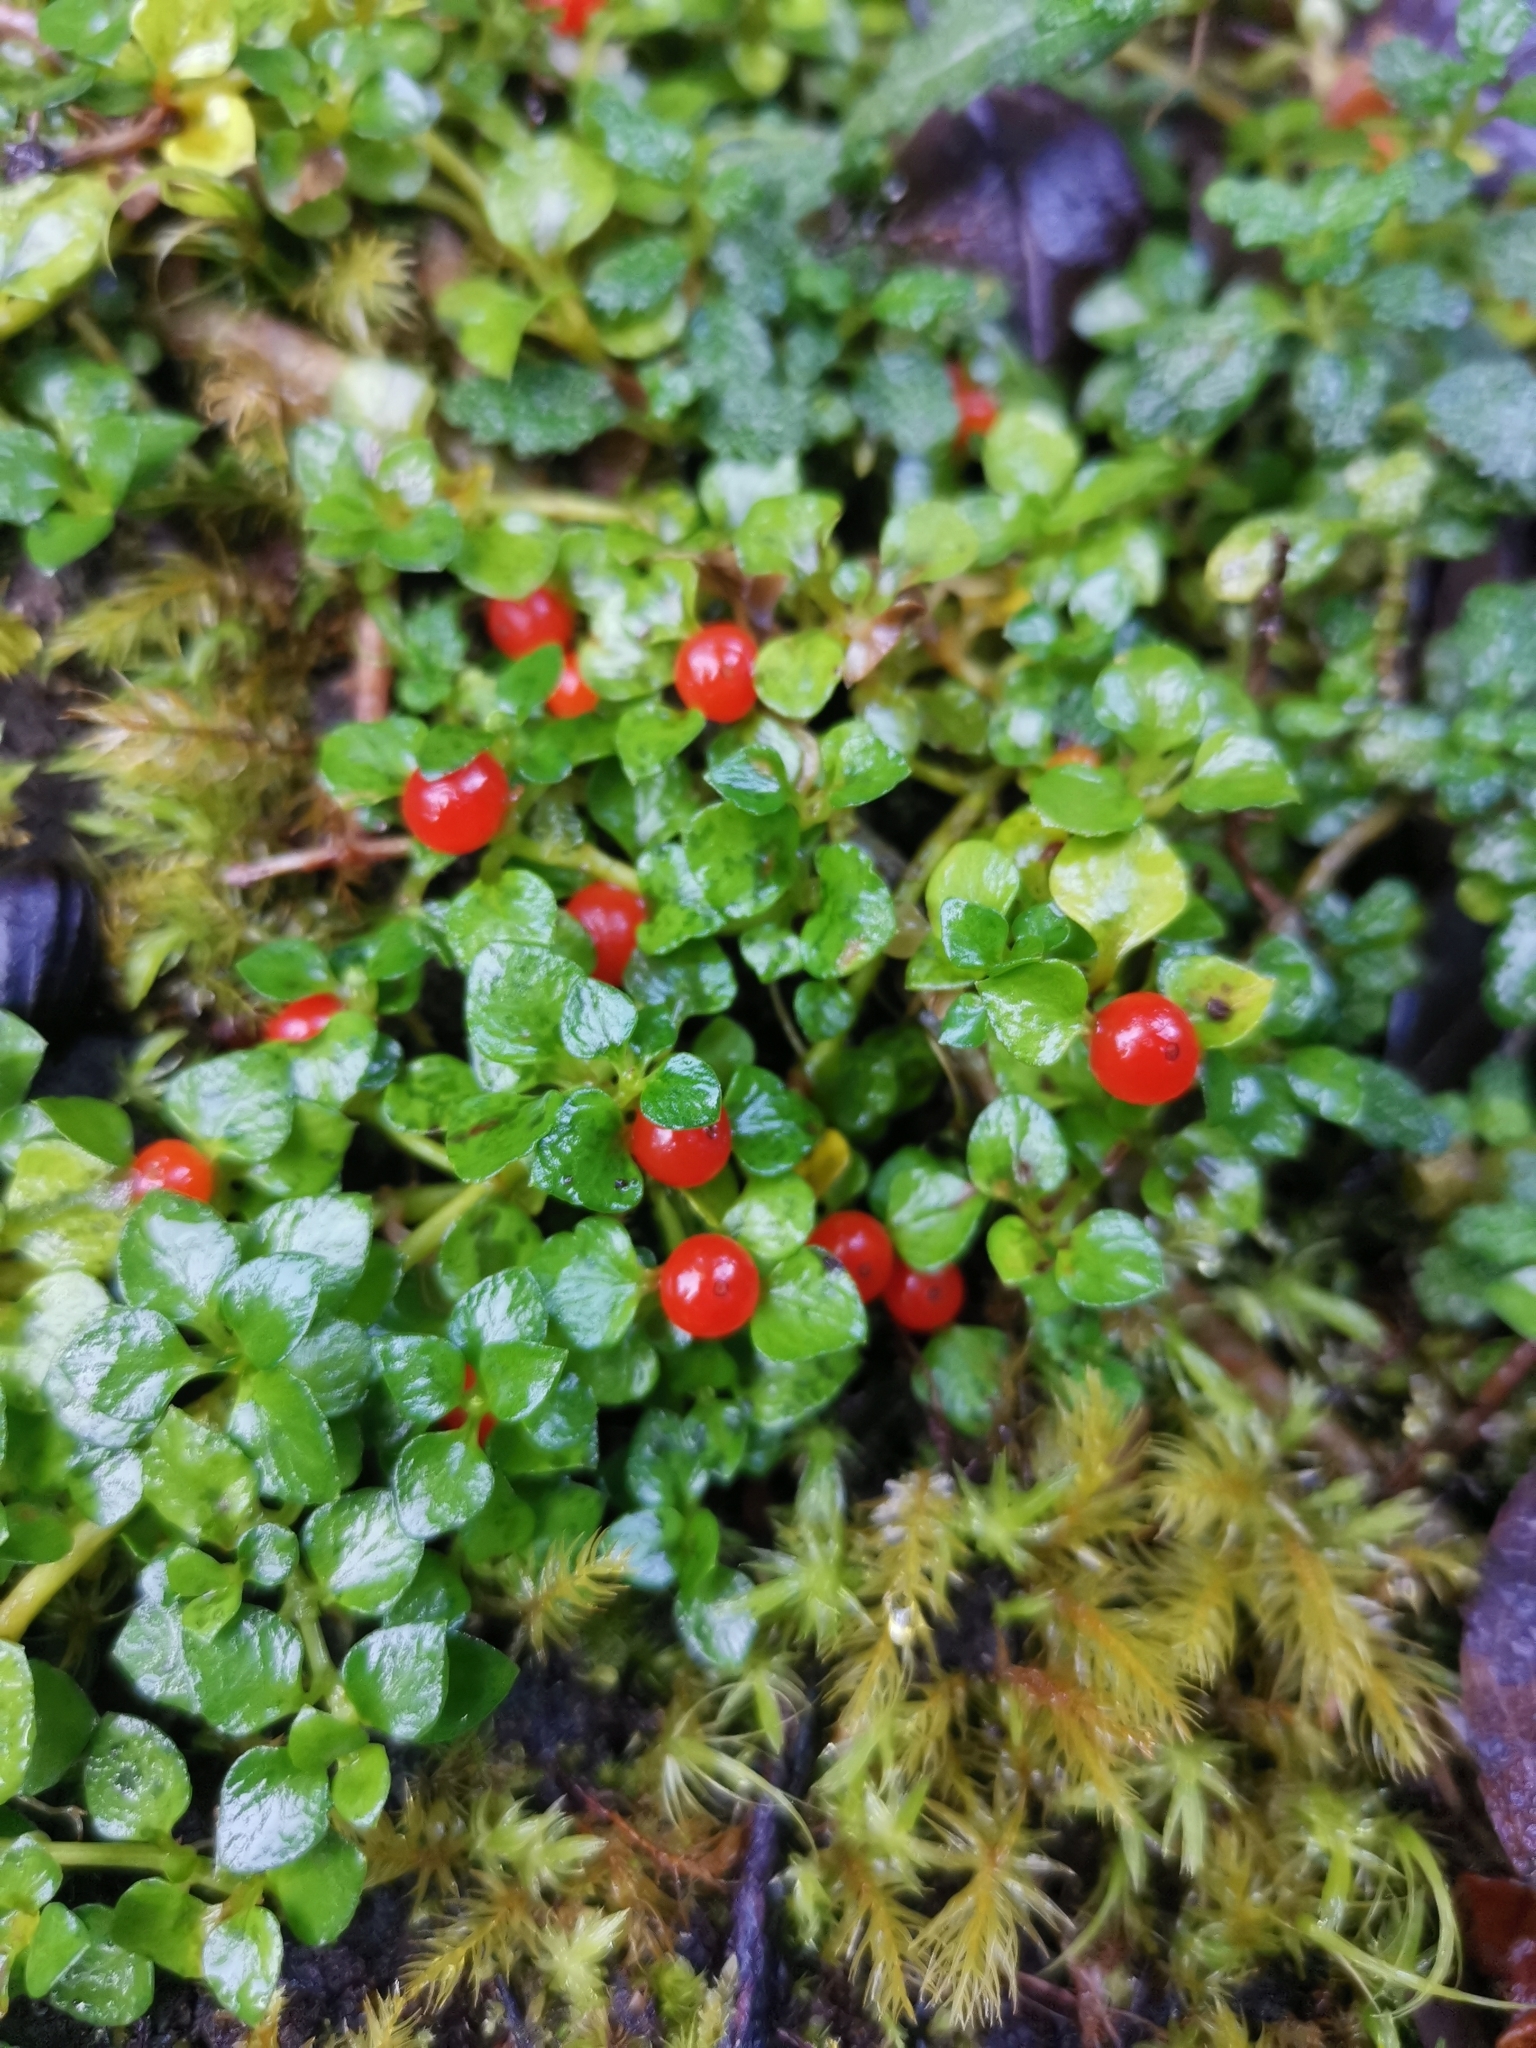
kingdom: Plantae
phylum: Tracheophyta
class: Magnoliopsida
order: Gentianales
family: Rubiaceae
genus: Nertera
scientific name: Nertera granadensis
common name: Beadplant
